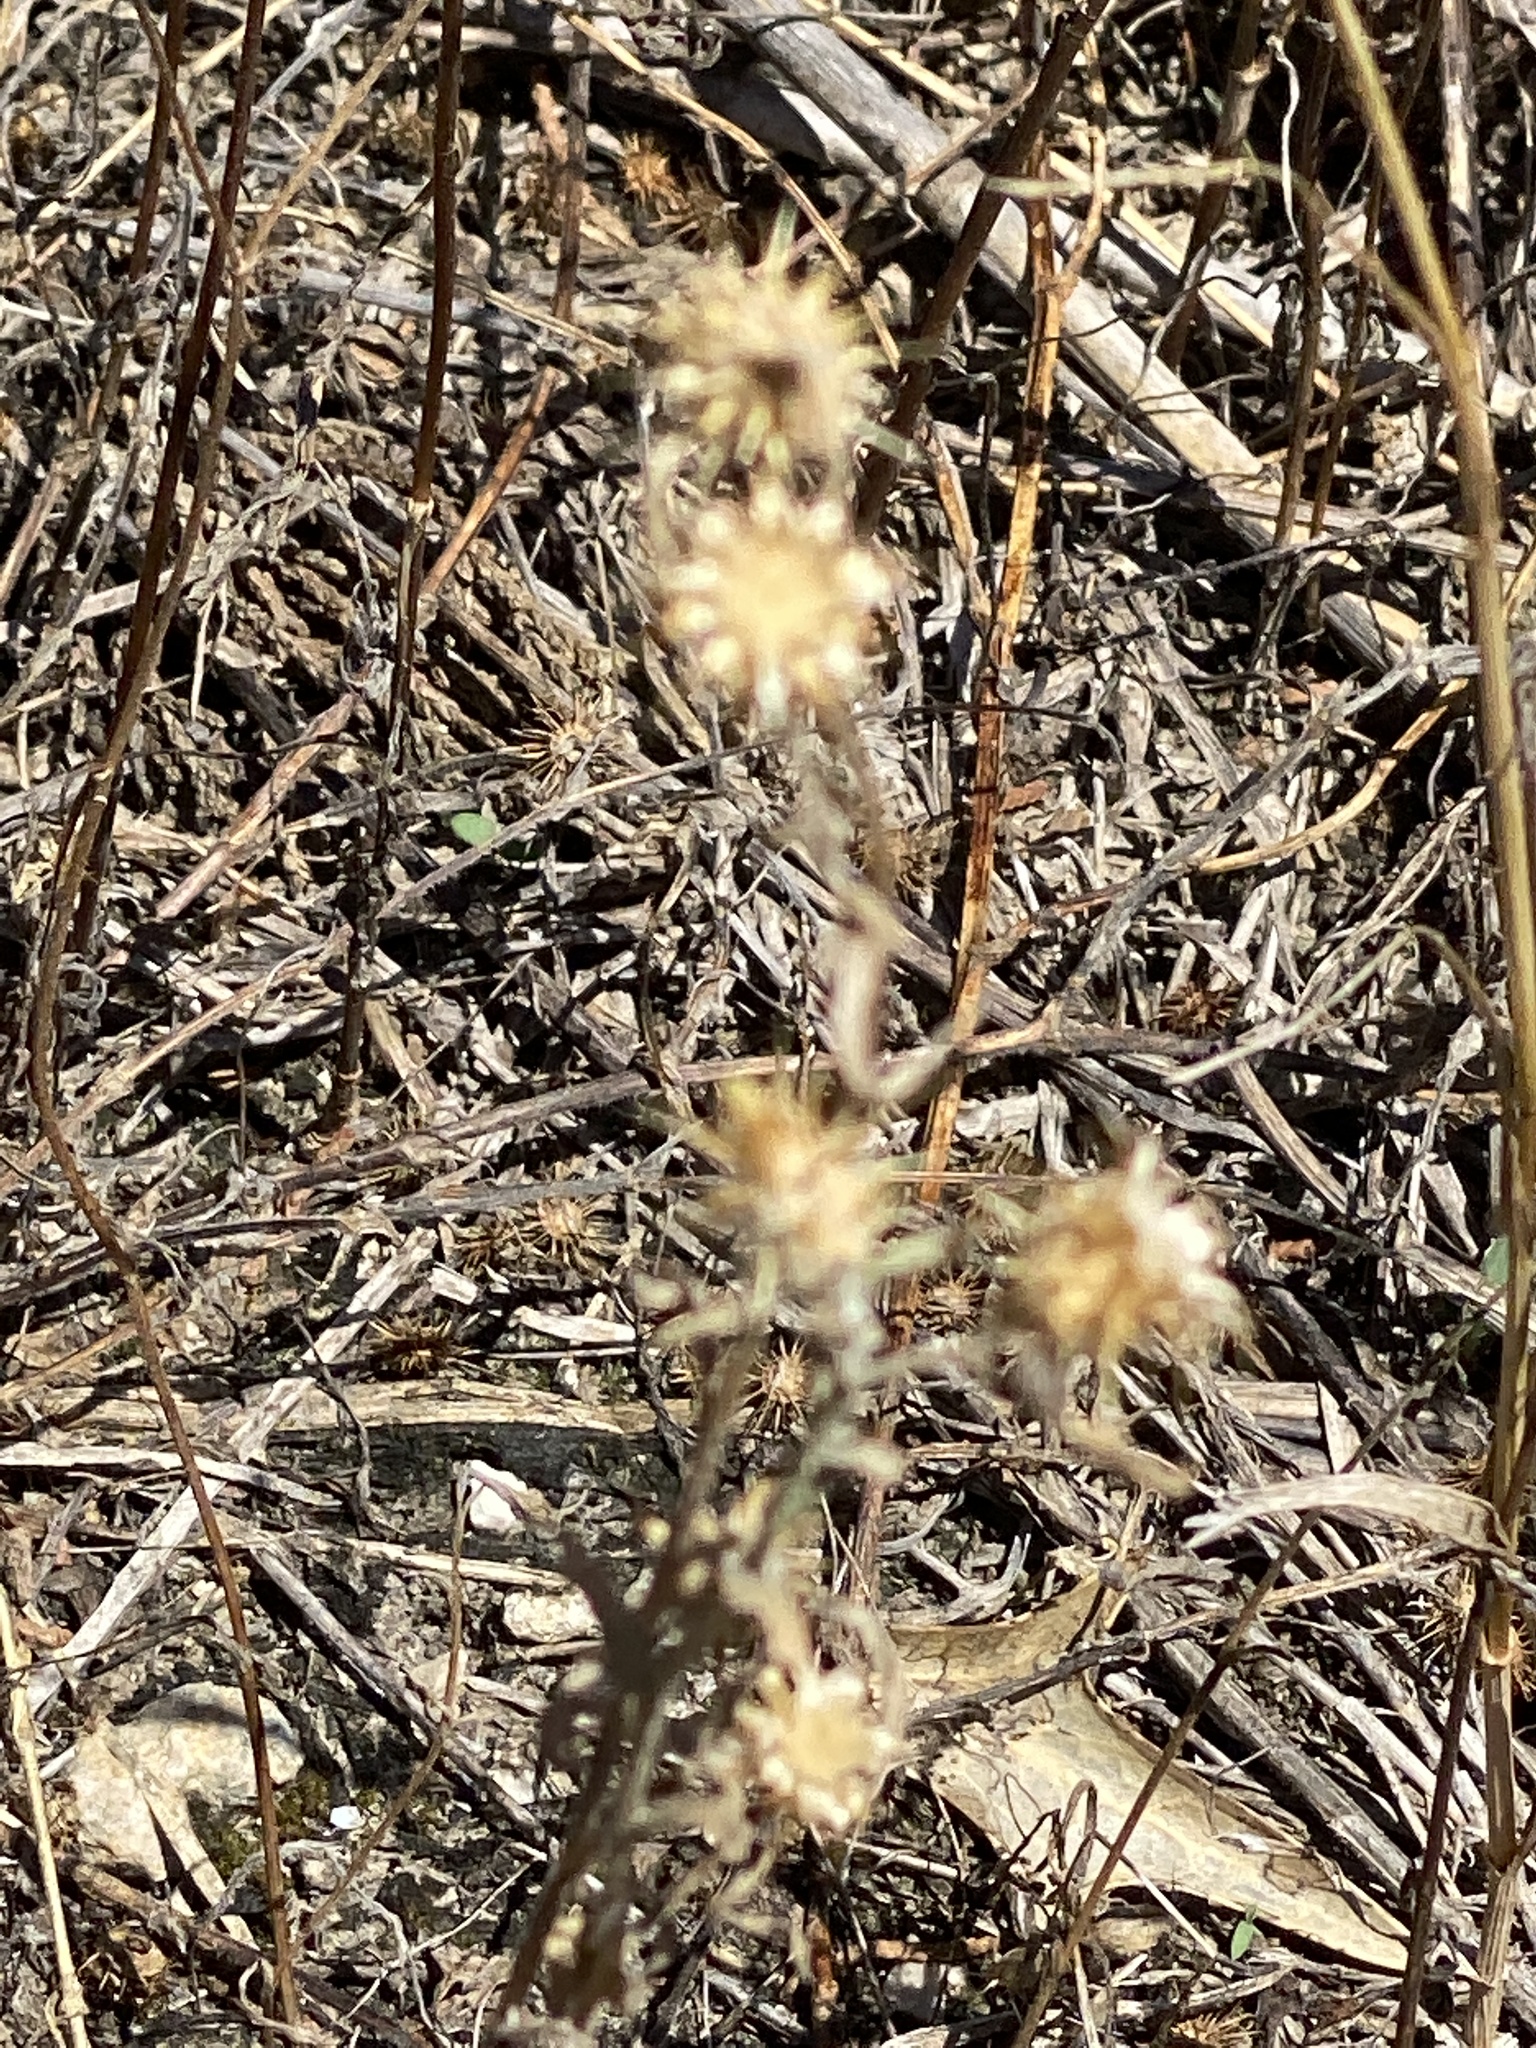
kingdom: Plantae
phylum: Tracheophyta
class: Magnoliopsida
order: Asterales
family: Asteraceae
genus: Centaurea
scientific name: Centaurea melitensis
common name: Maltese star-thistle
